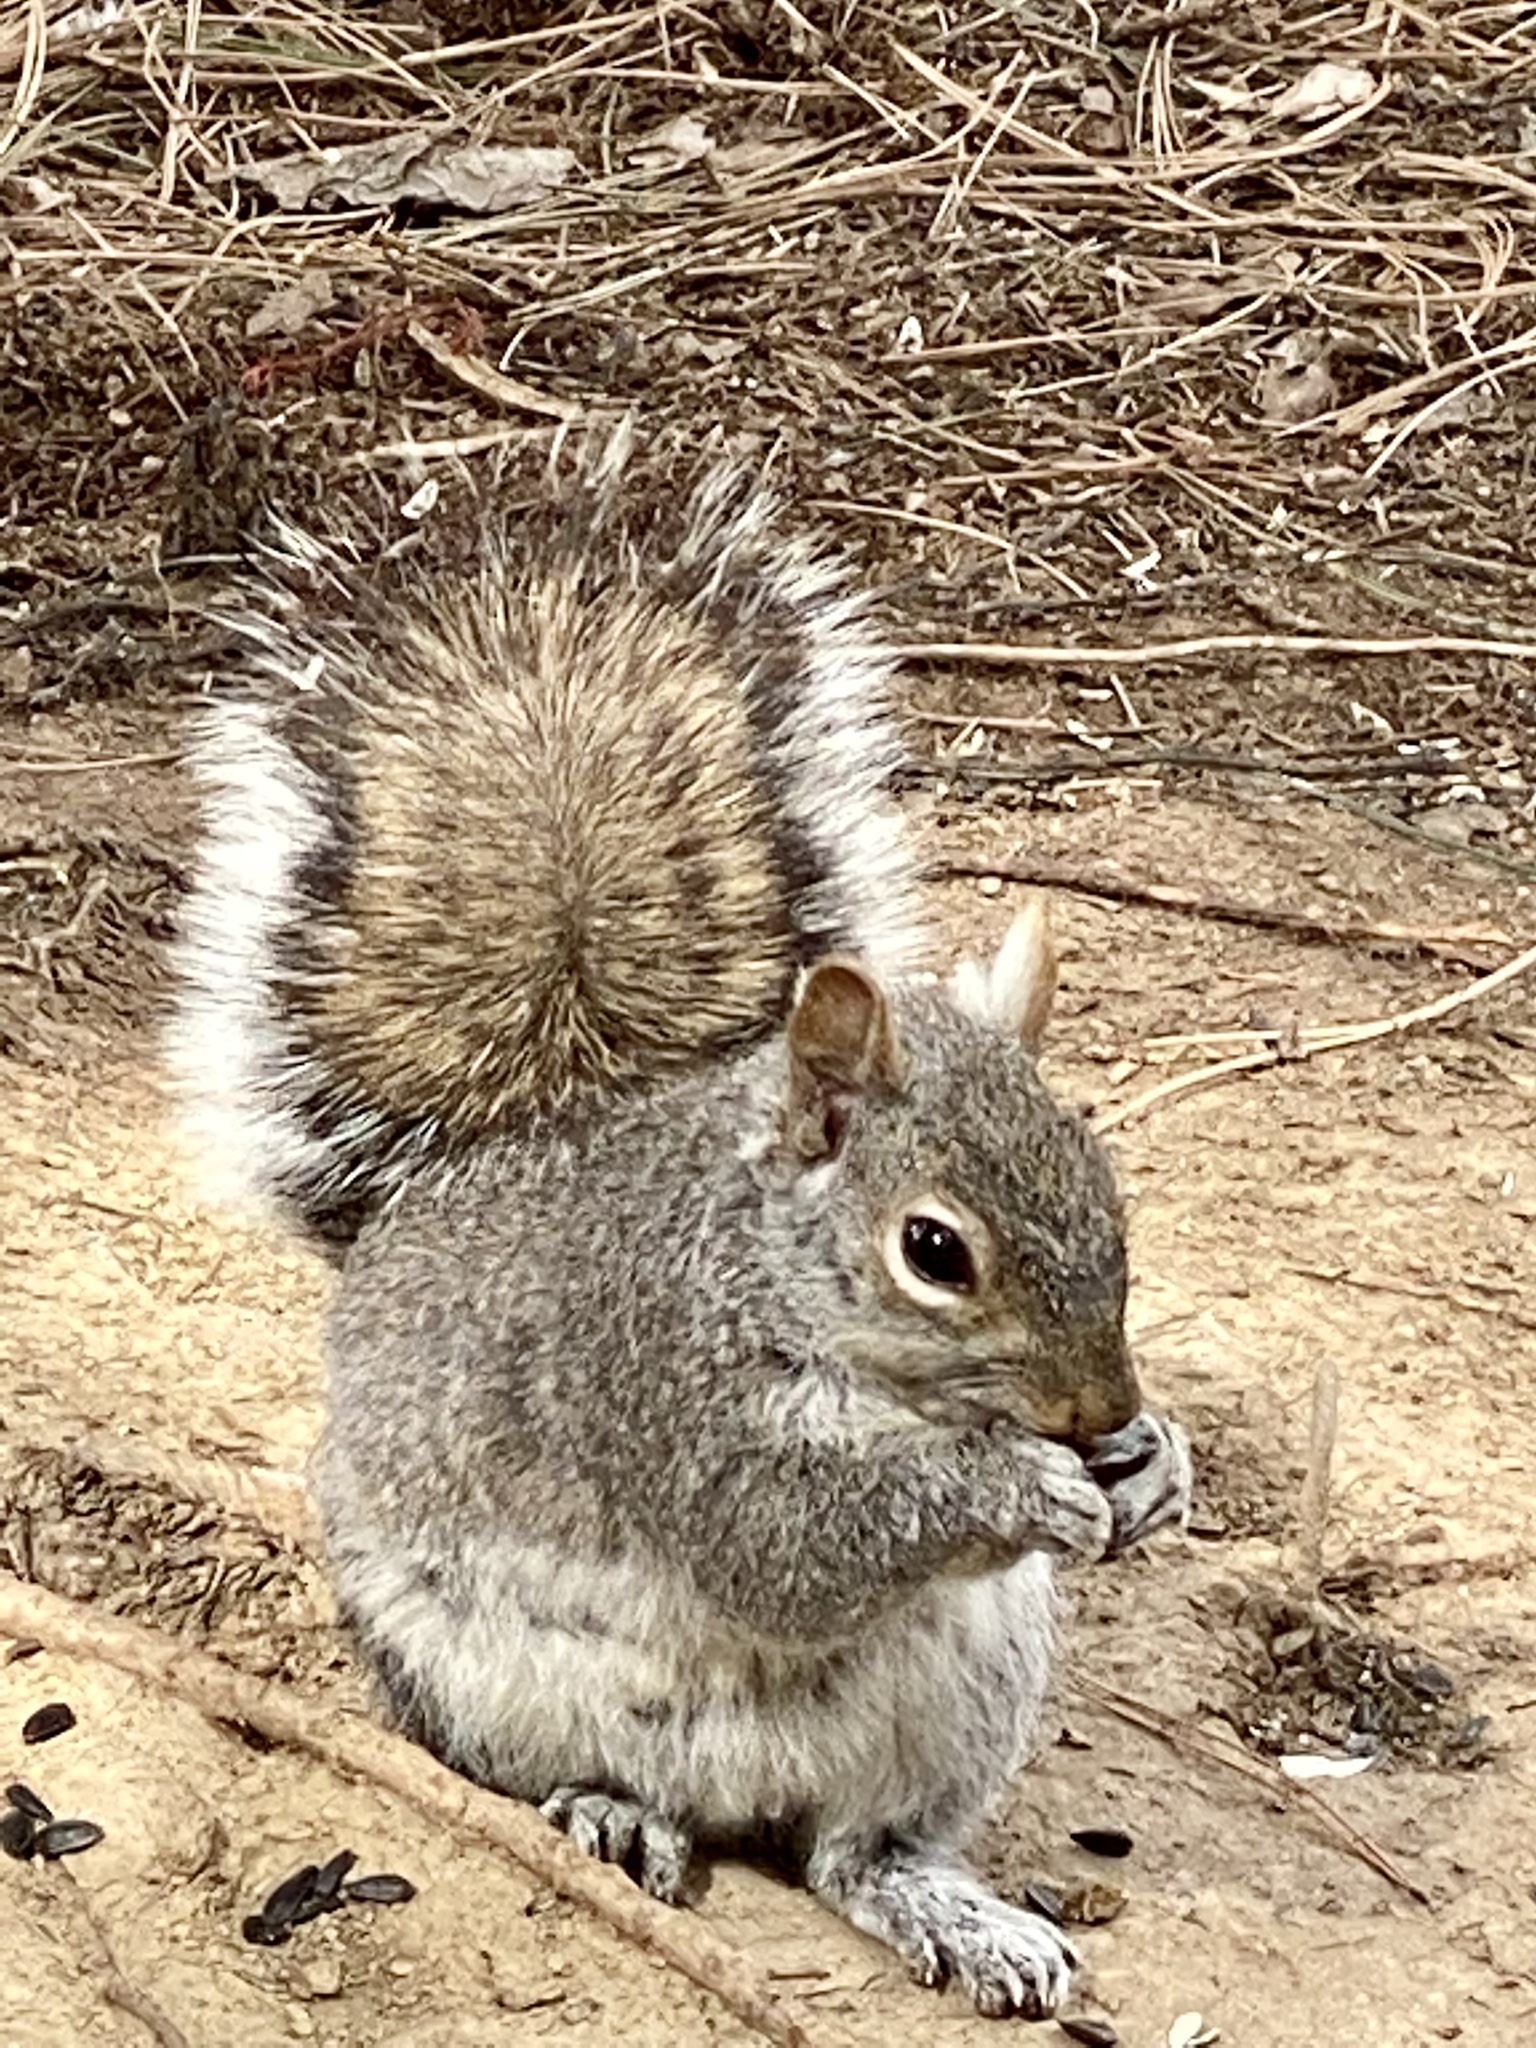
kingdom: Animalia
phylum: Chordata
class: Mammalia
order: Rodentia
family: Sciuridae
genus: Sciurus
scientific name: Sciurus carolinensis
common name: Eastern gray squirrel
